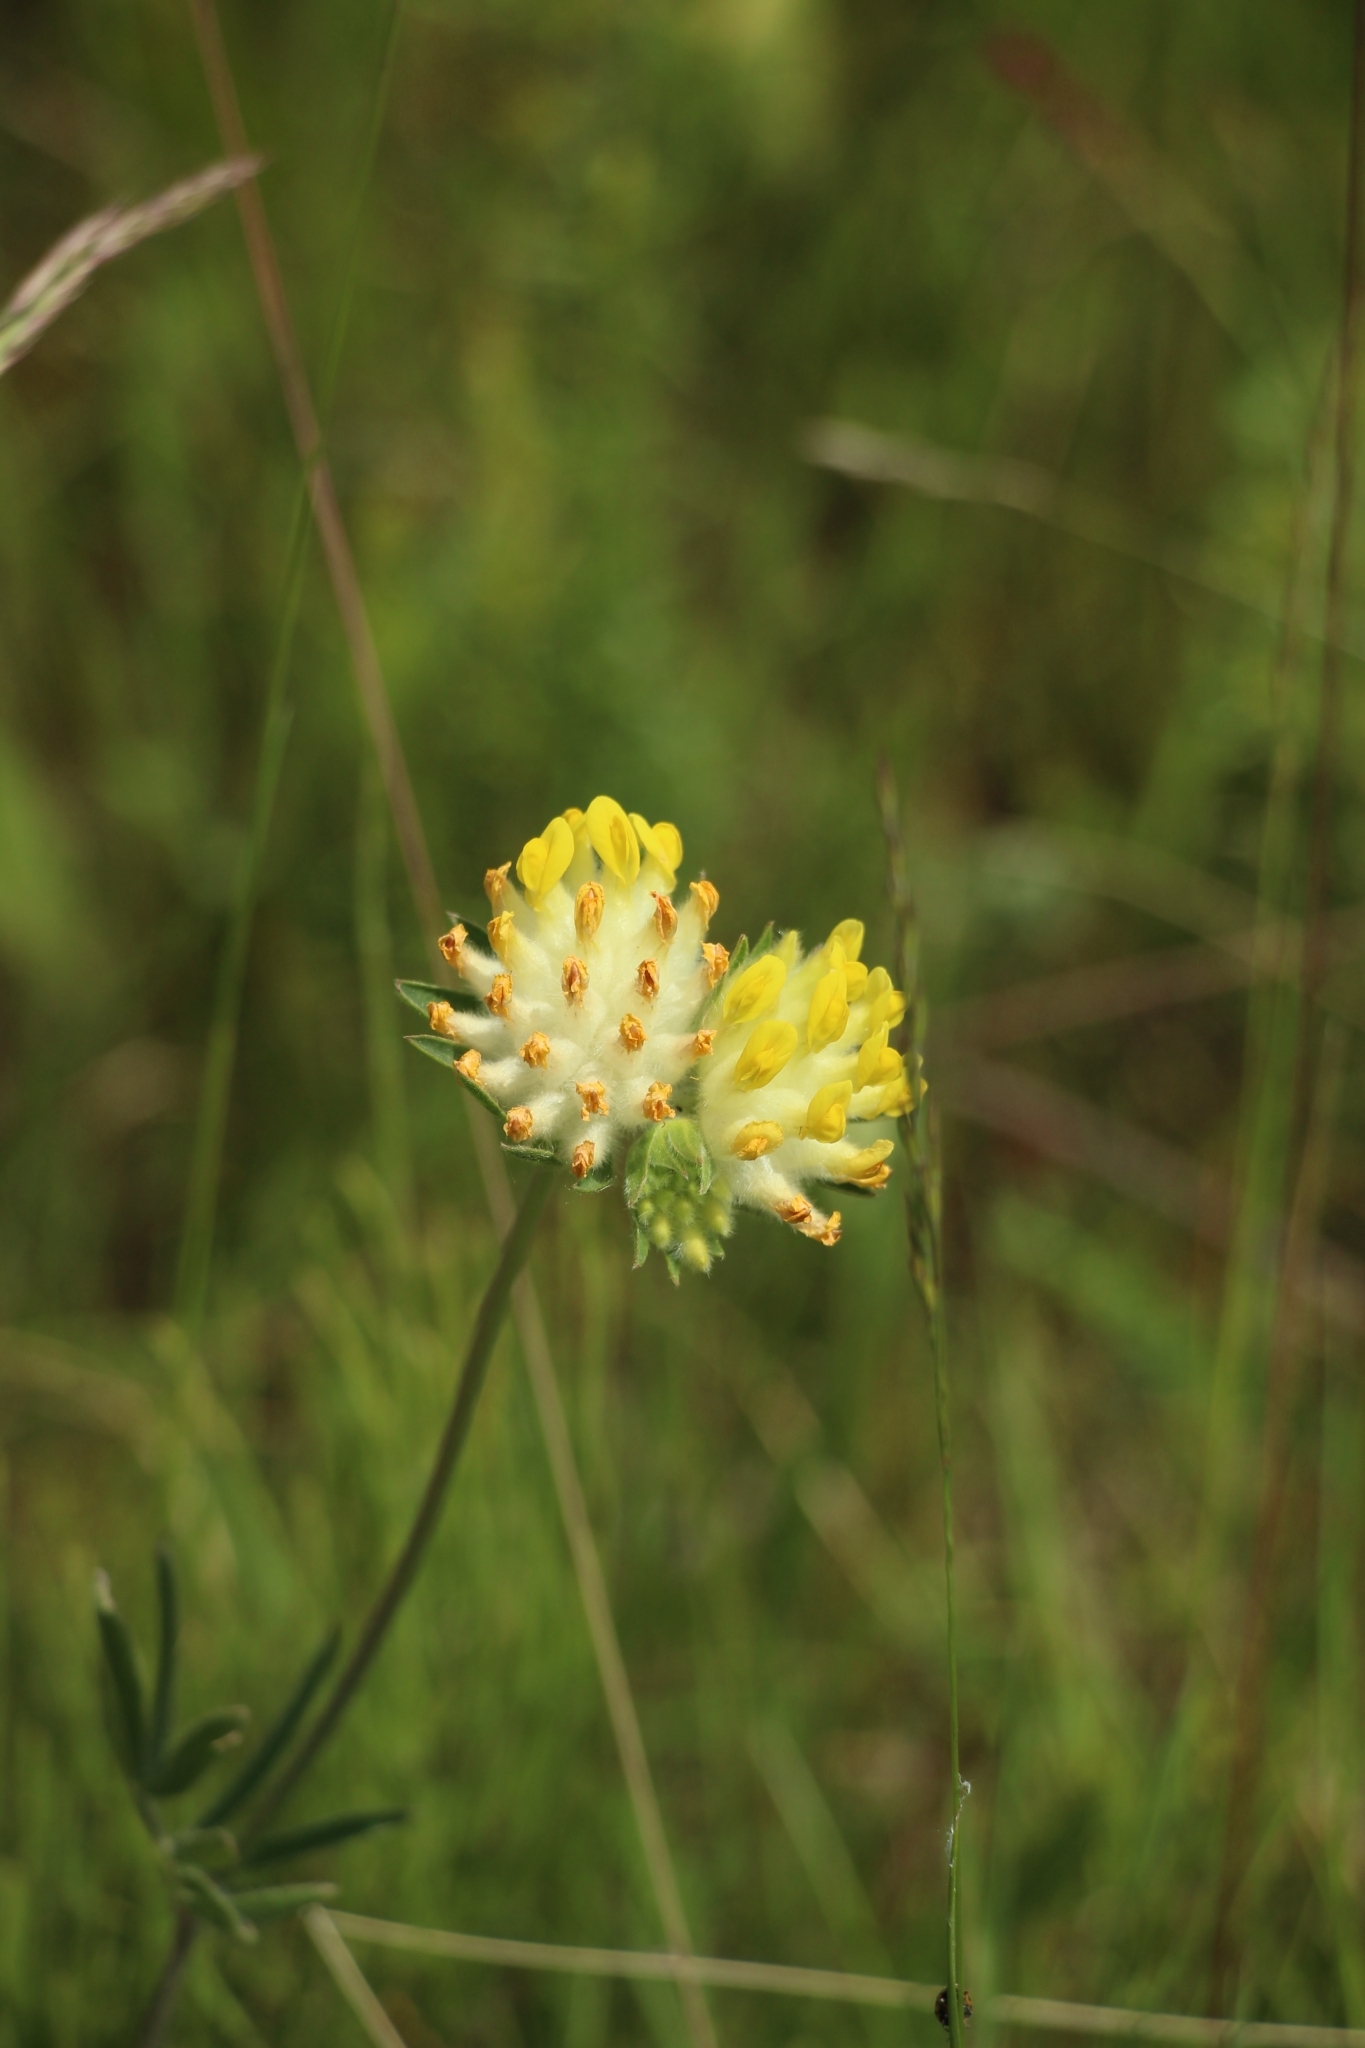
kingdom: Plantae
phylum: Tracheophyta
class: Magnoliopsida
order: Fabales
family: Fabaceae
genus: Anthyllis
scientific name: Anthyllis vulneraria
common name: Kidney vetch
